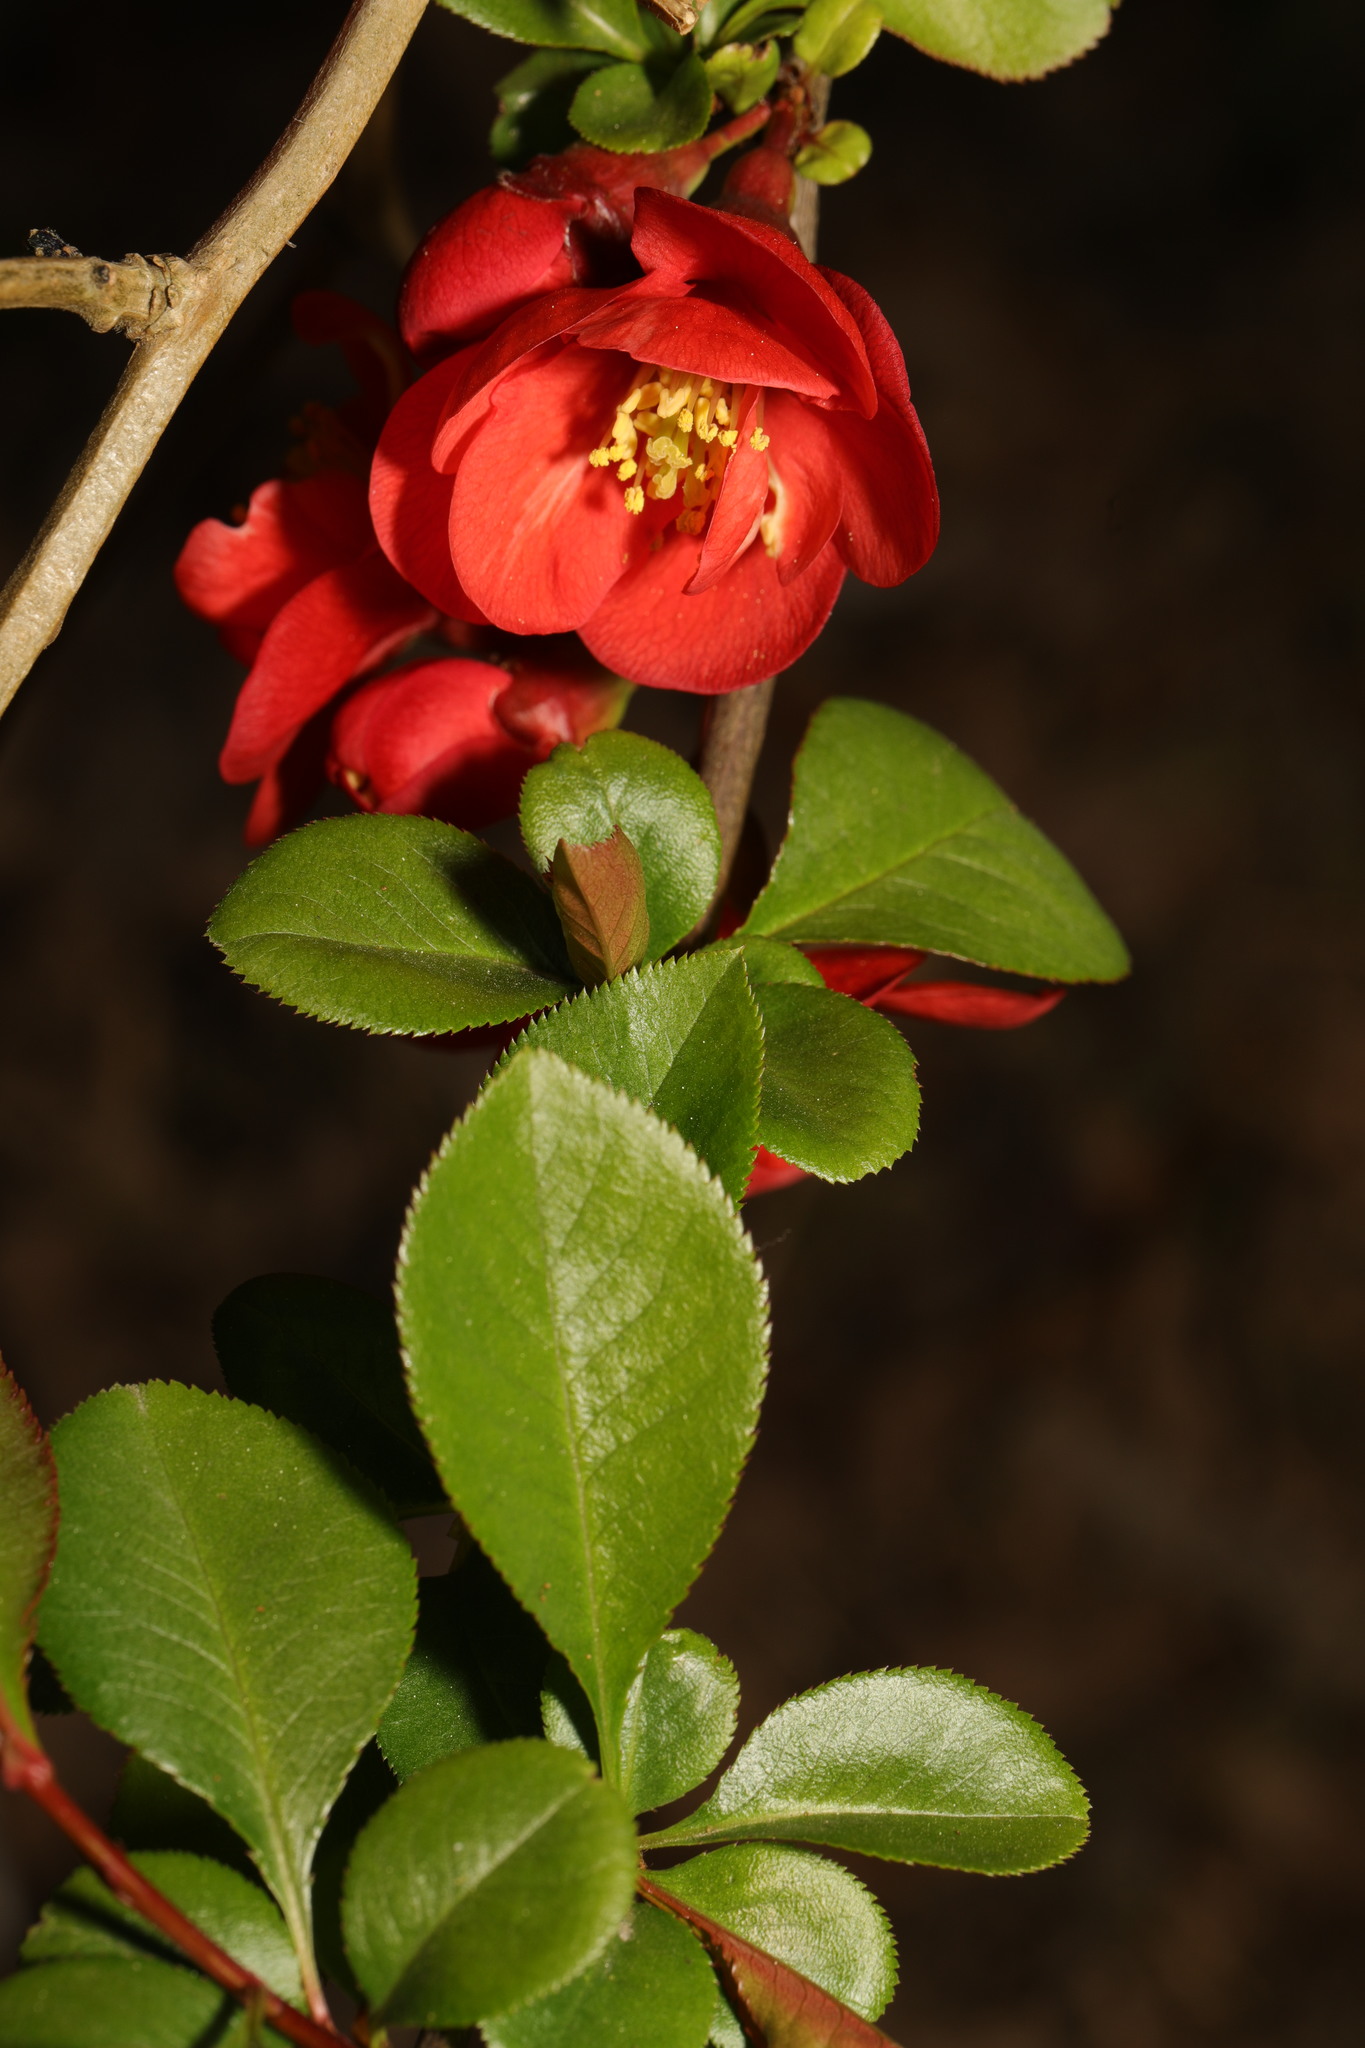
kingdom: Plantae
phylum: Tracheophyta
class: Magnoliopsida
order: Rosales
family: Rosaceae
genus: Chaenomeles
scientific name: Chaenomeles speciosa
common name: Japanese quince
